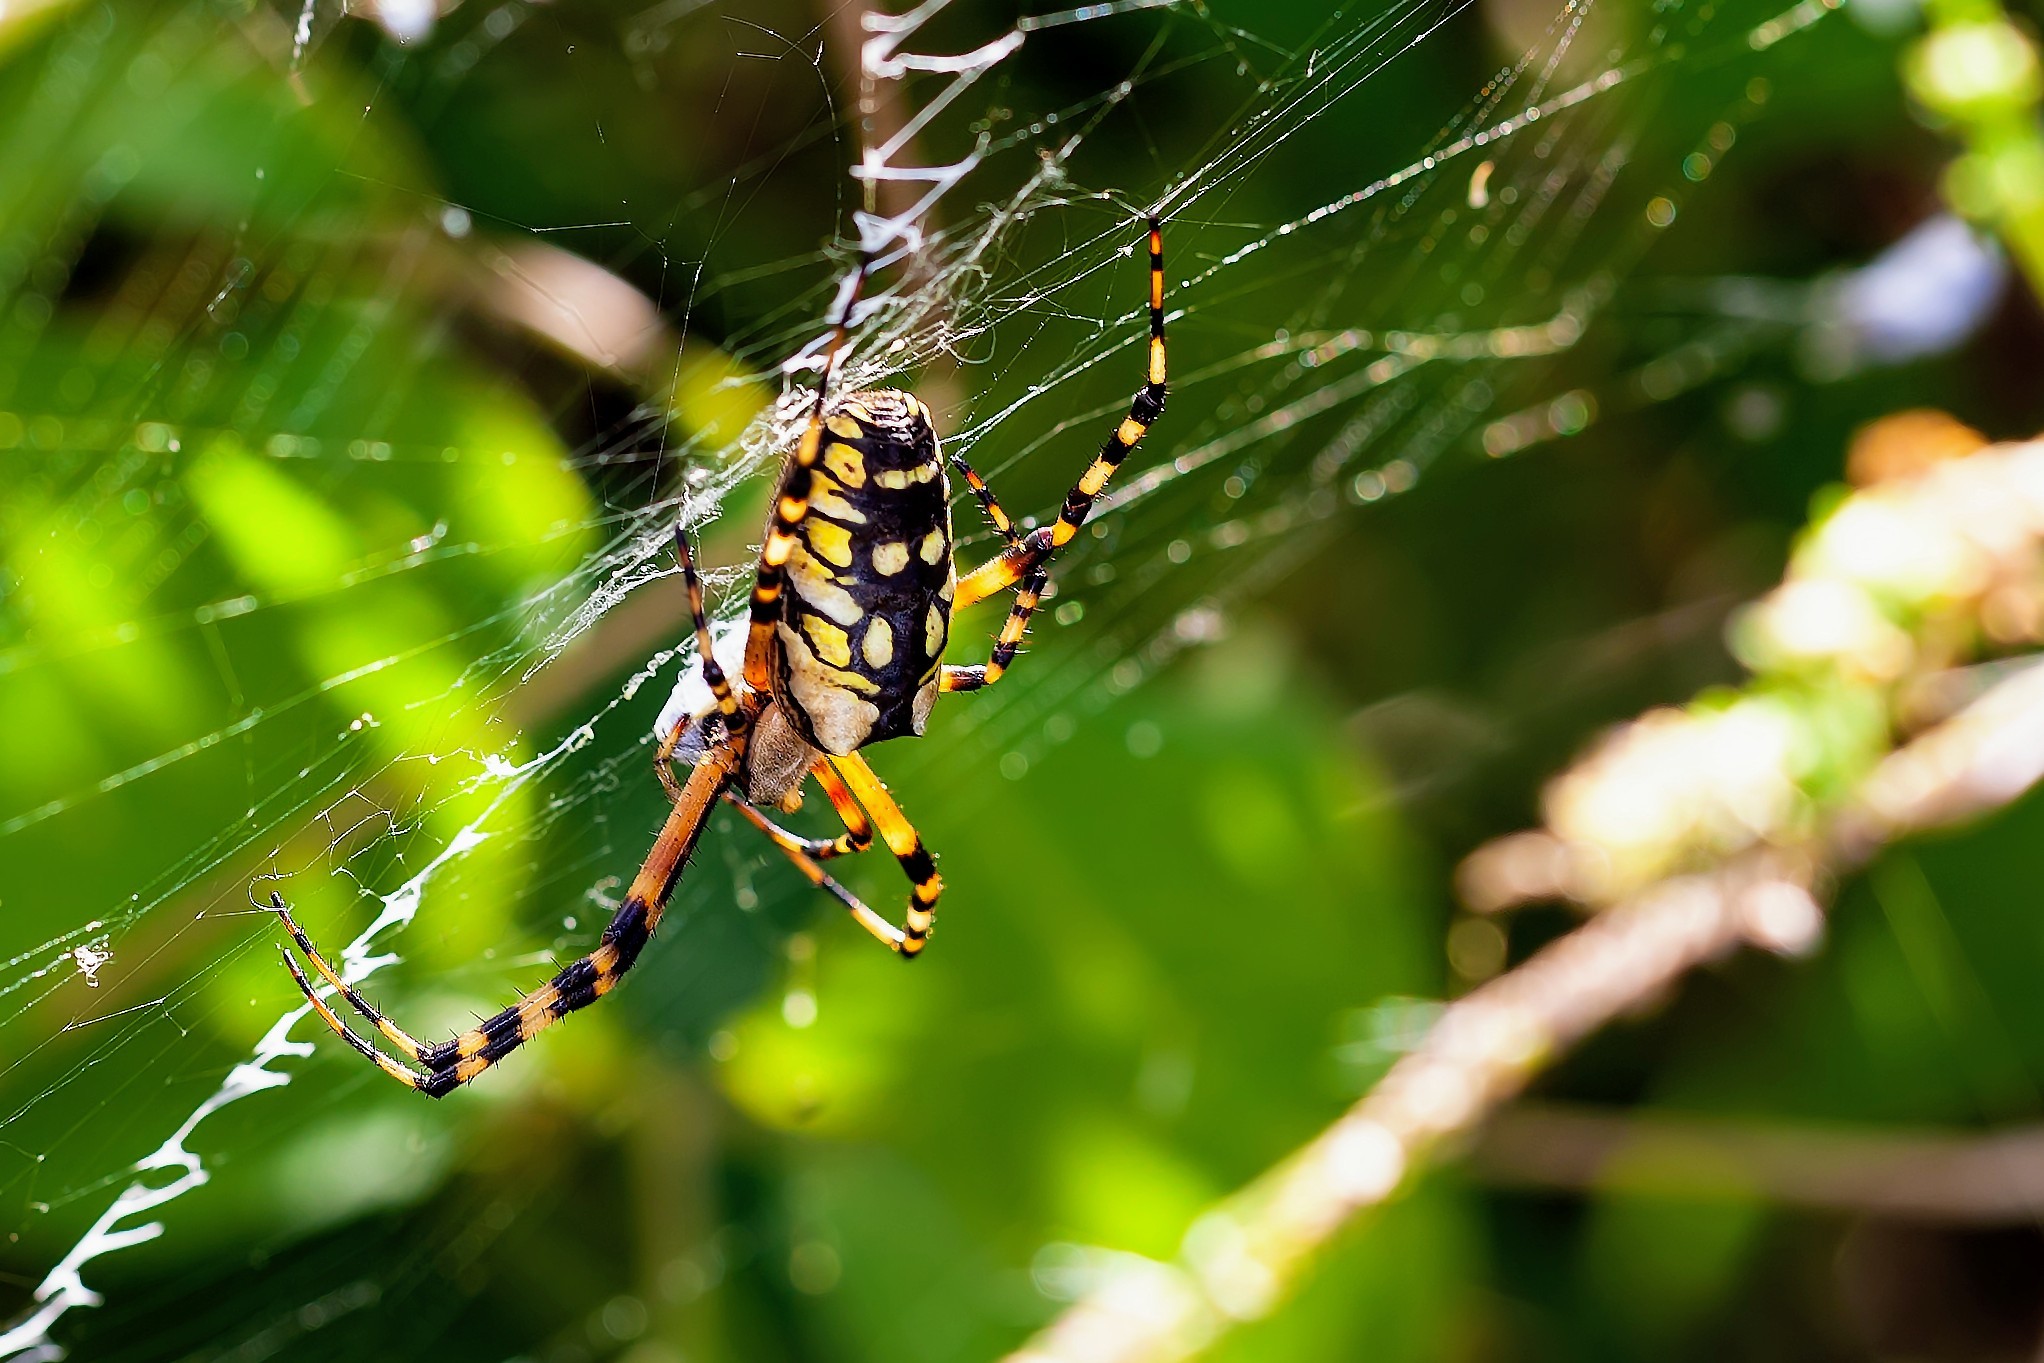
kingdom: Animalia
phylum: Arthropoda
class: Arachnida
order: Araneae
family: Araneidae
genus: Argiope
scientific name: Argiope aurantia
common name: Orb weavers
